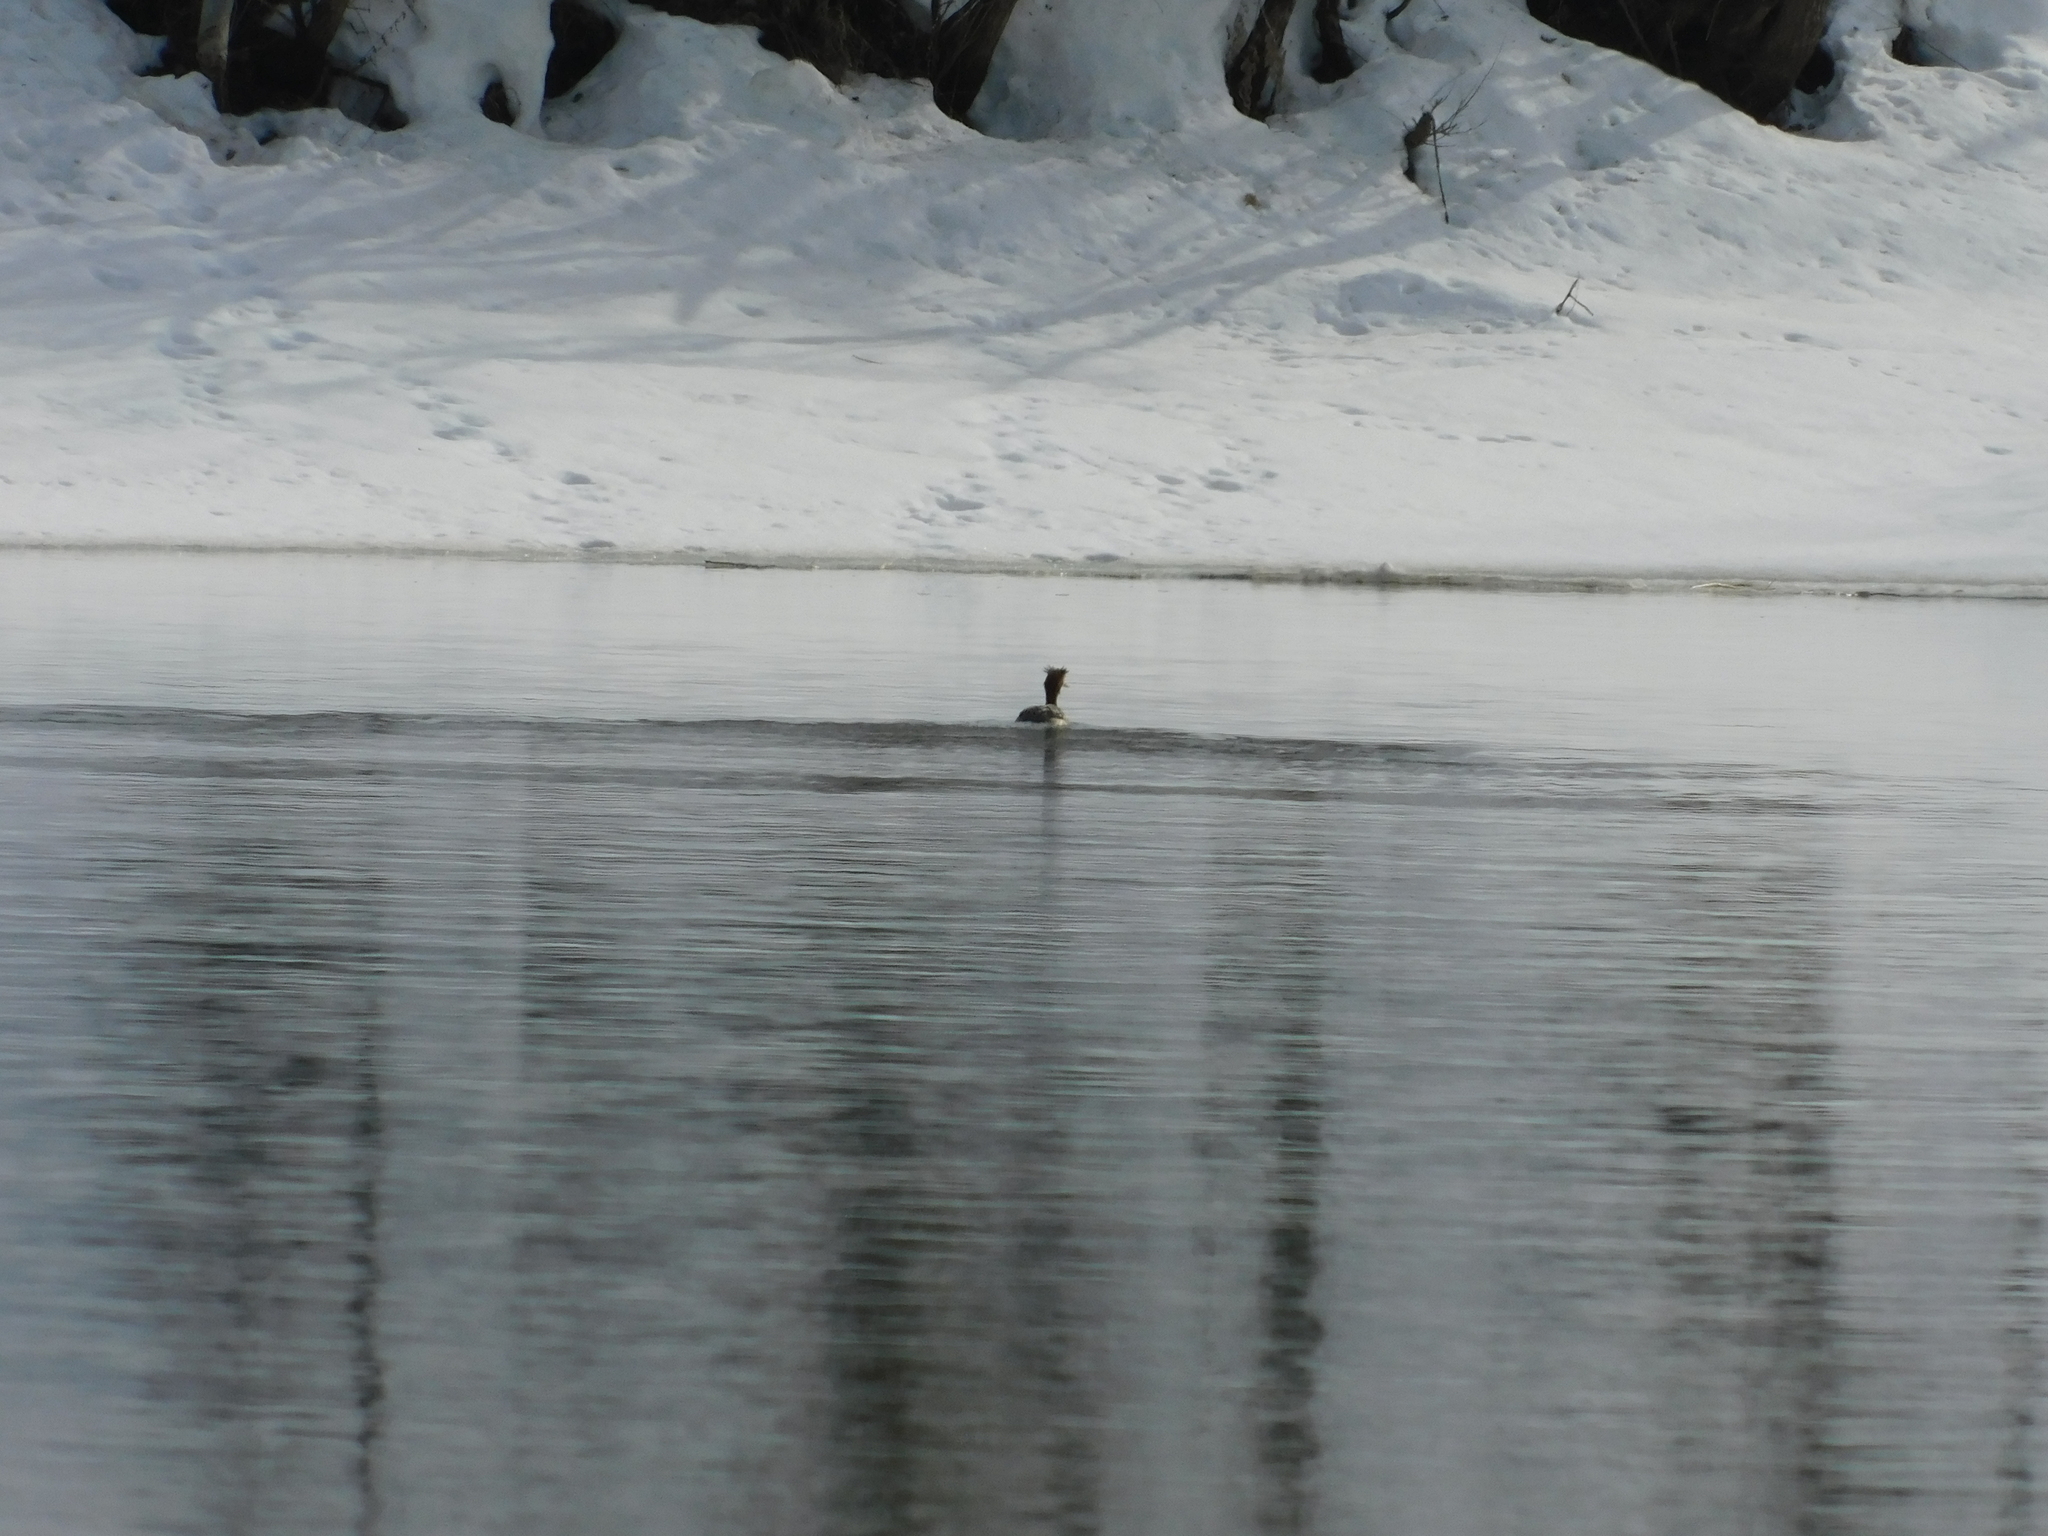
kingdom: Animalia
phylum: Chordata
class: Aves
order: Podicipediformes
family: Podicipedidae
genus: Podiceps
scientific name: Podiceps cristatus
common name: Great crested grebe
